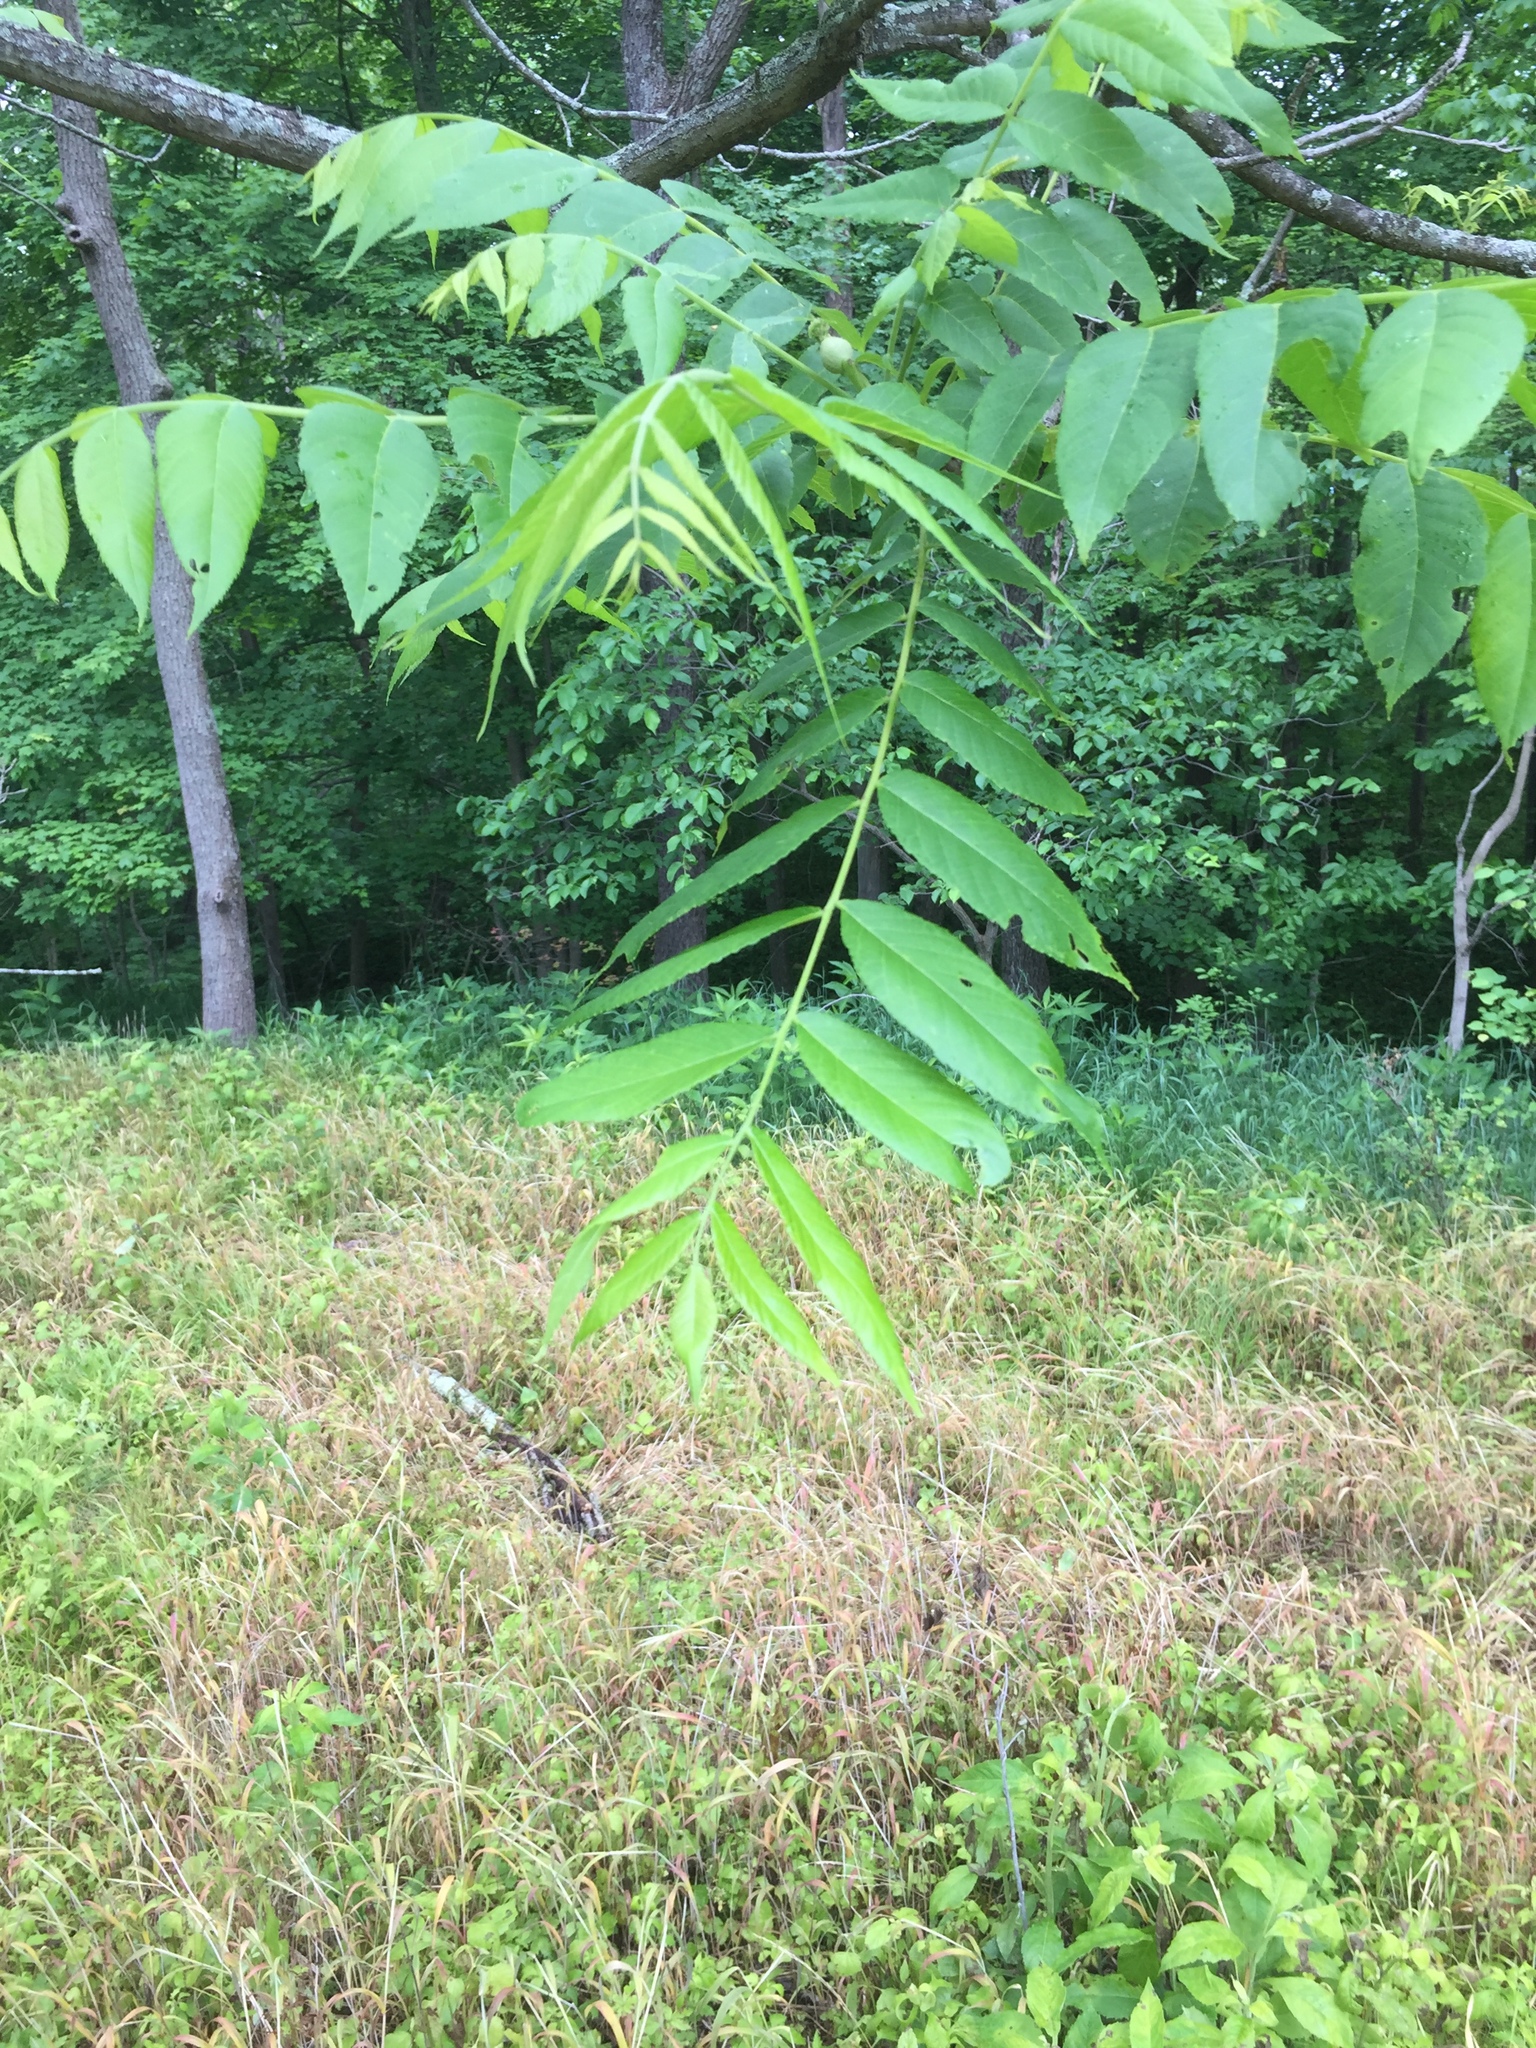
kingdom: Plantae
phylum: Tracheophyta
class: Magnoliopsida
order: Fagales
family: Juglandaceae
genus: Juglans
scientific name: Juglans nigra
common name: Black walnut
